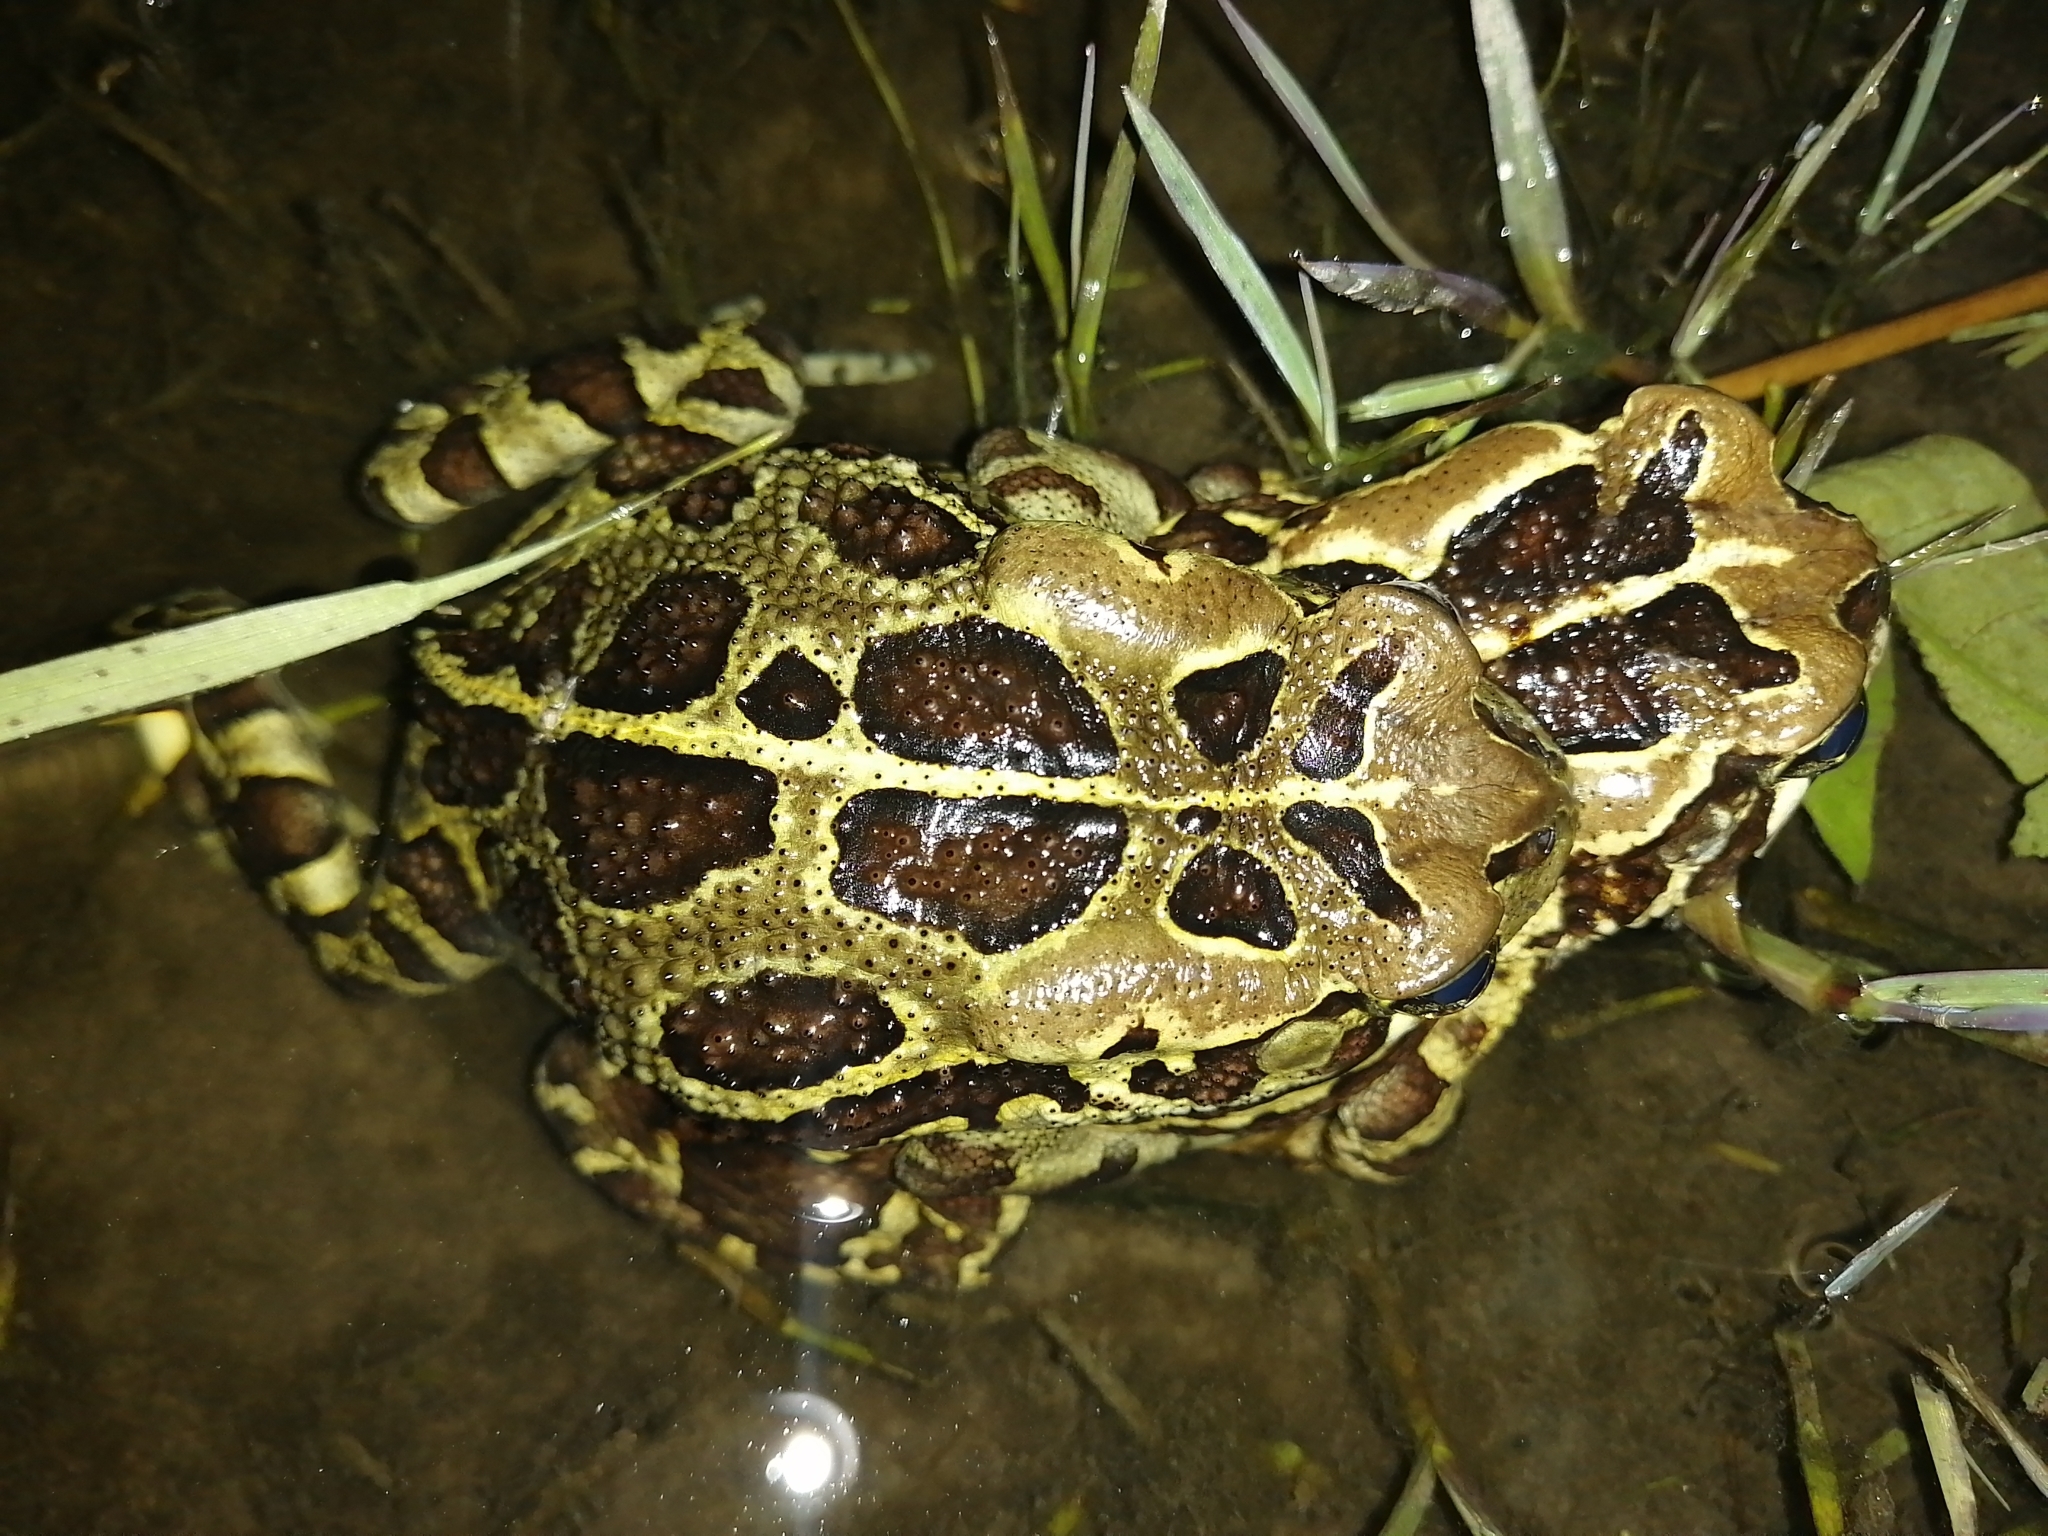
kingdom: Animalia
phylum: Chordata
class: Amphibia
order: Anura
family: Bufonidae
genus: Sclerophrys
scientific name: Sclerophrys pantherina
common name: Panther toad
